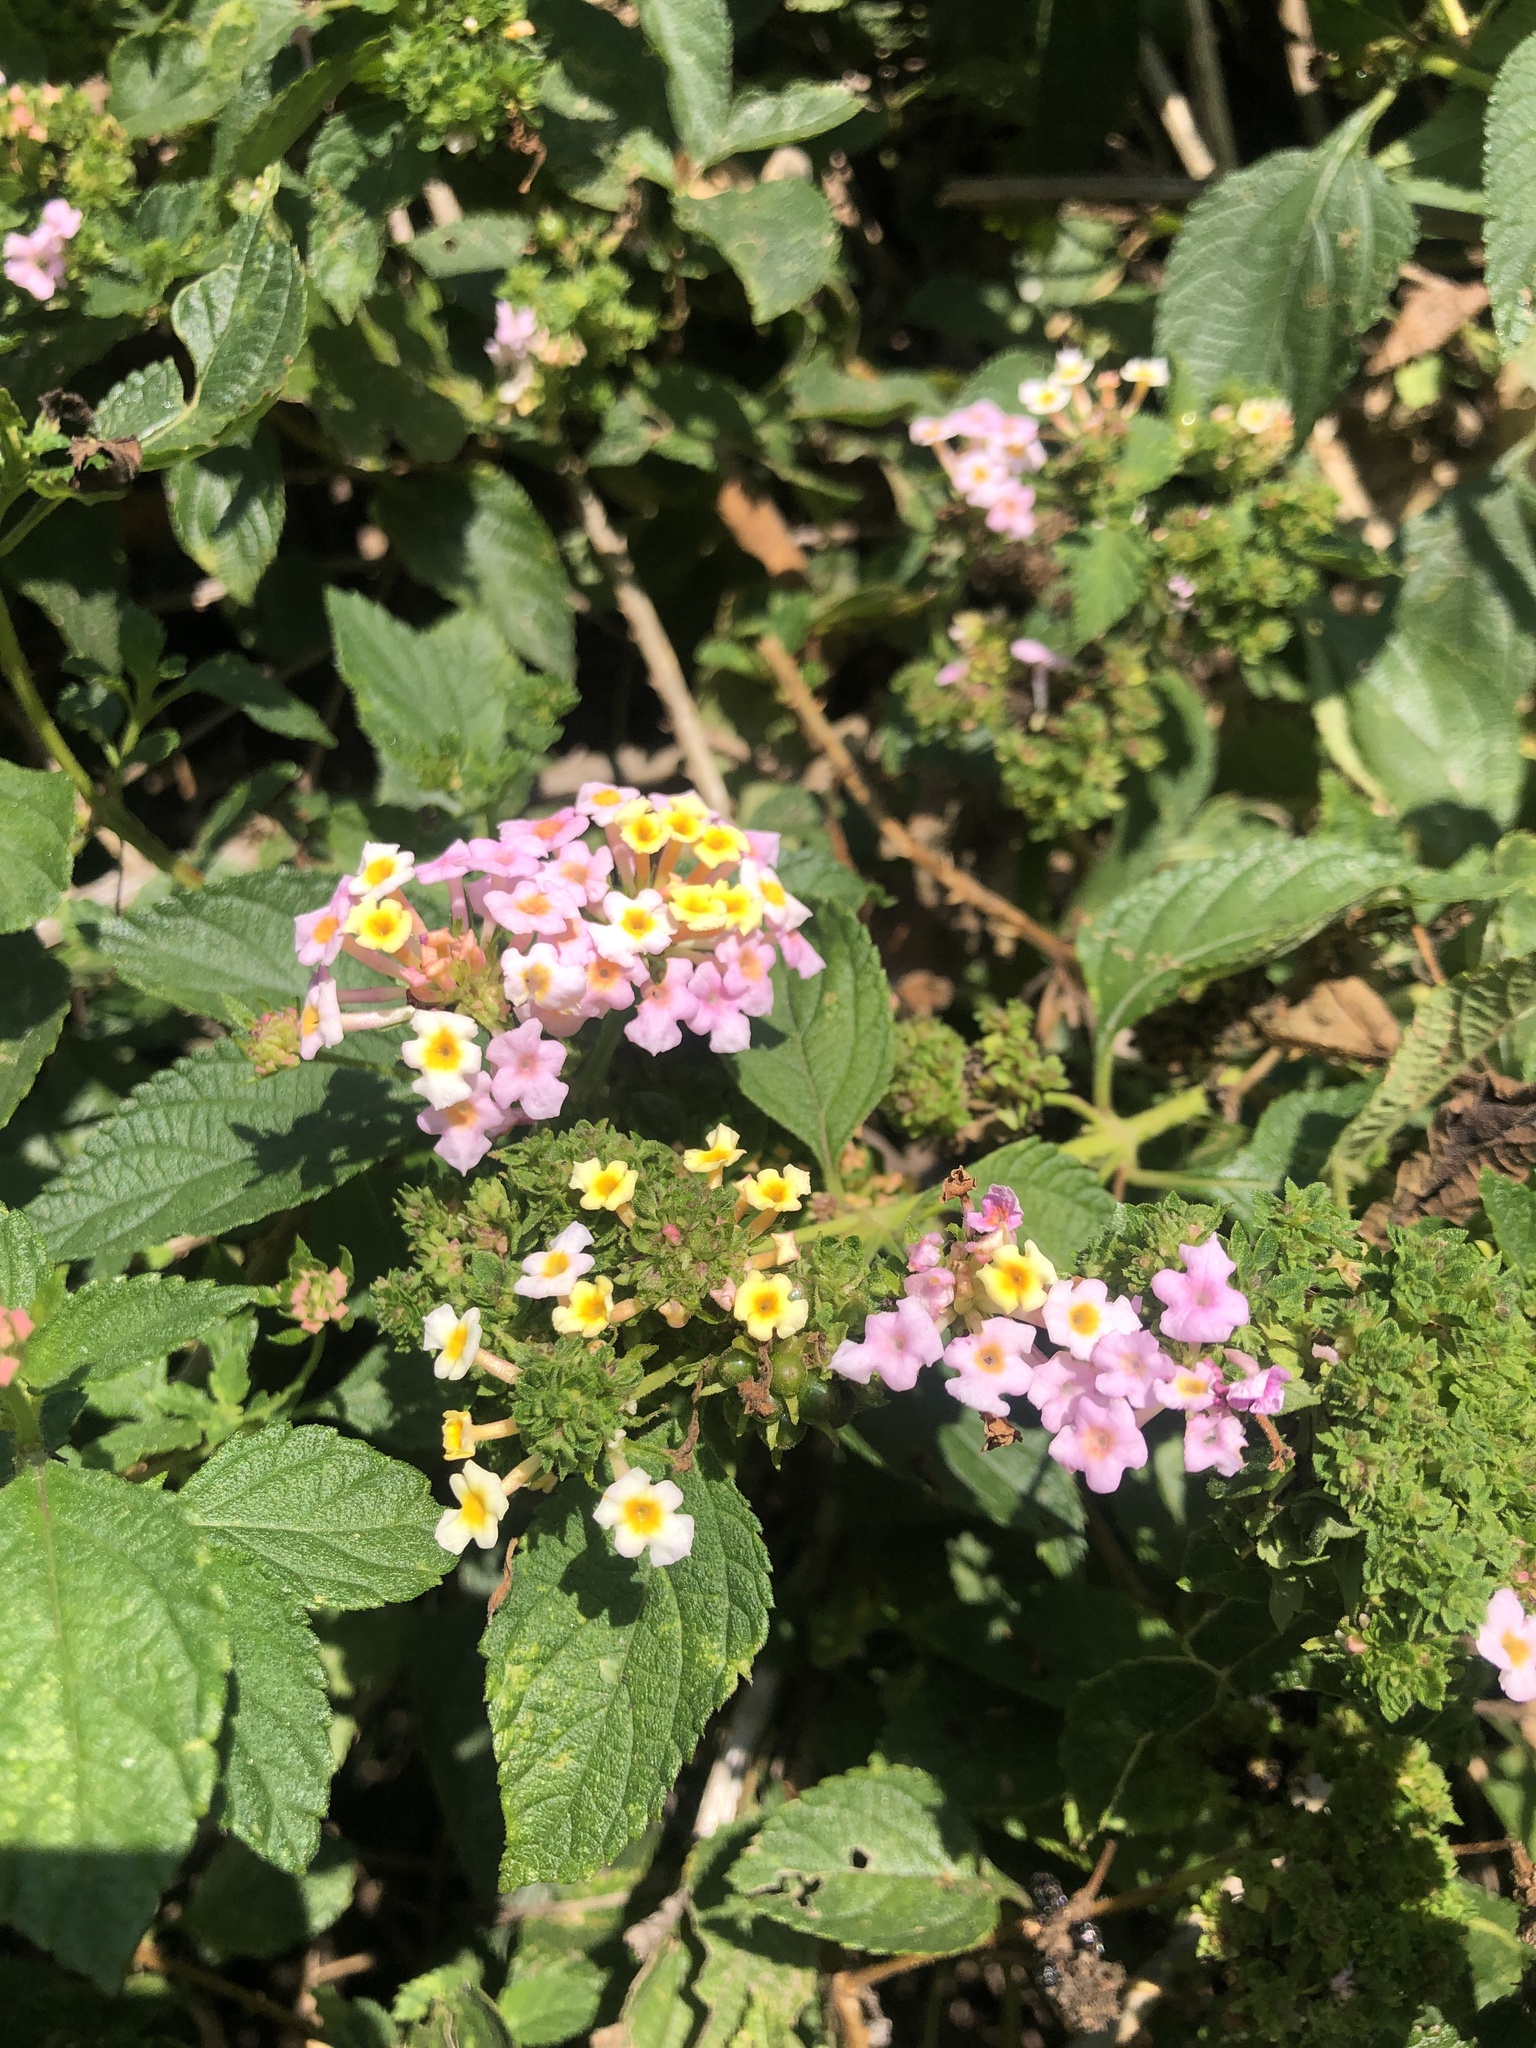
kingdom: Plantae
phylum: Tracheophyta
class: Magnoliopsida
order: Lamiales
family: Verbenaceae
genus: Lantana
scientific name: Lantana camara
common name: Lantana
